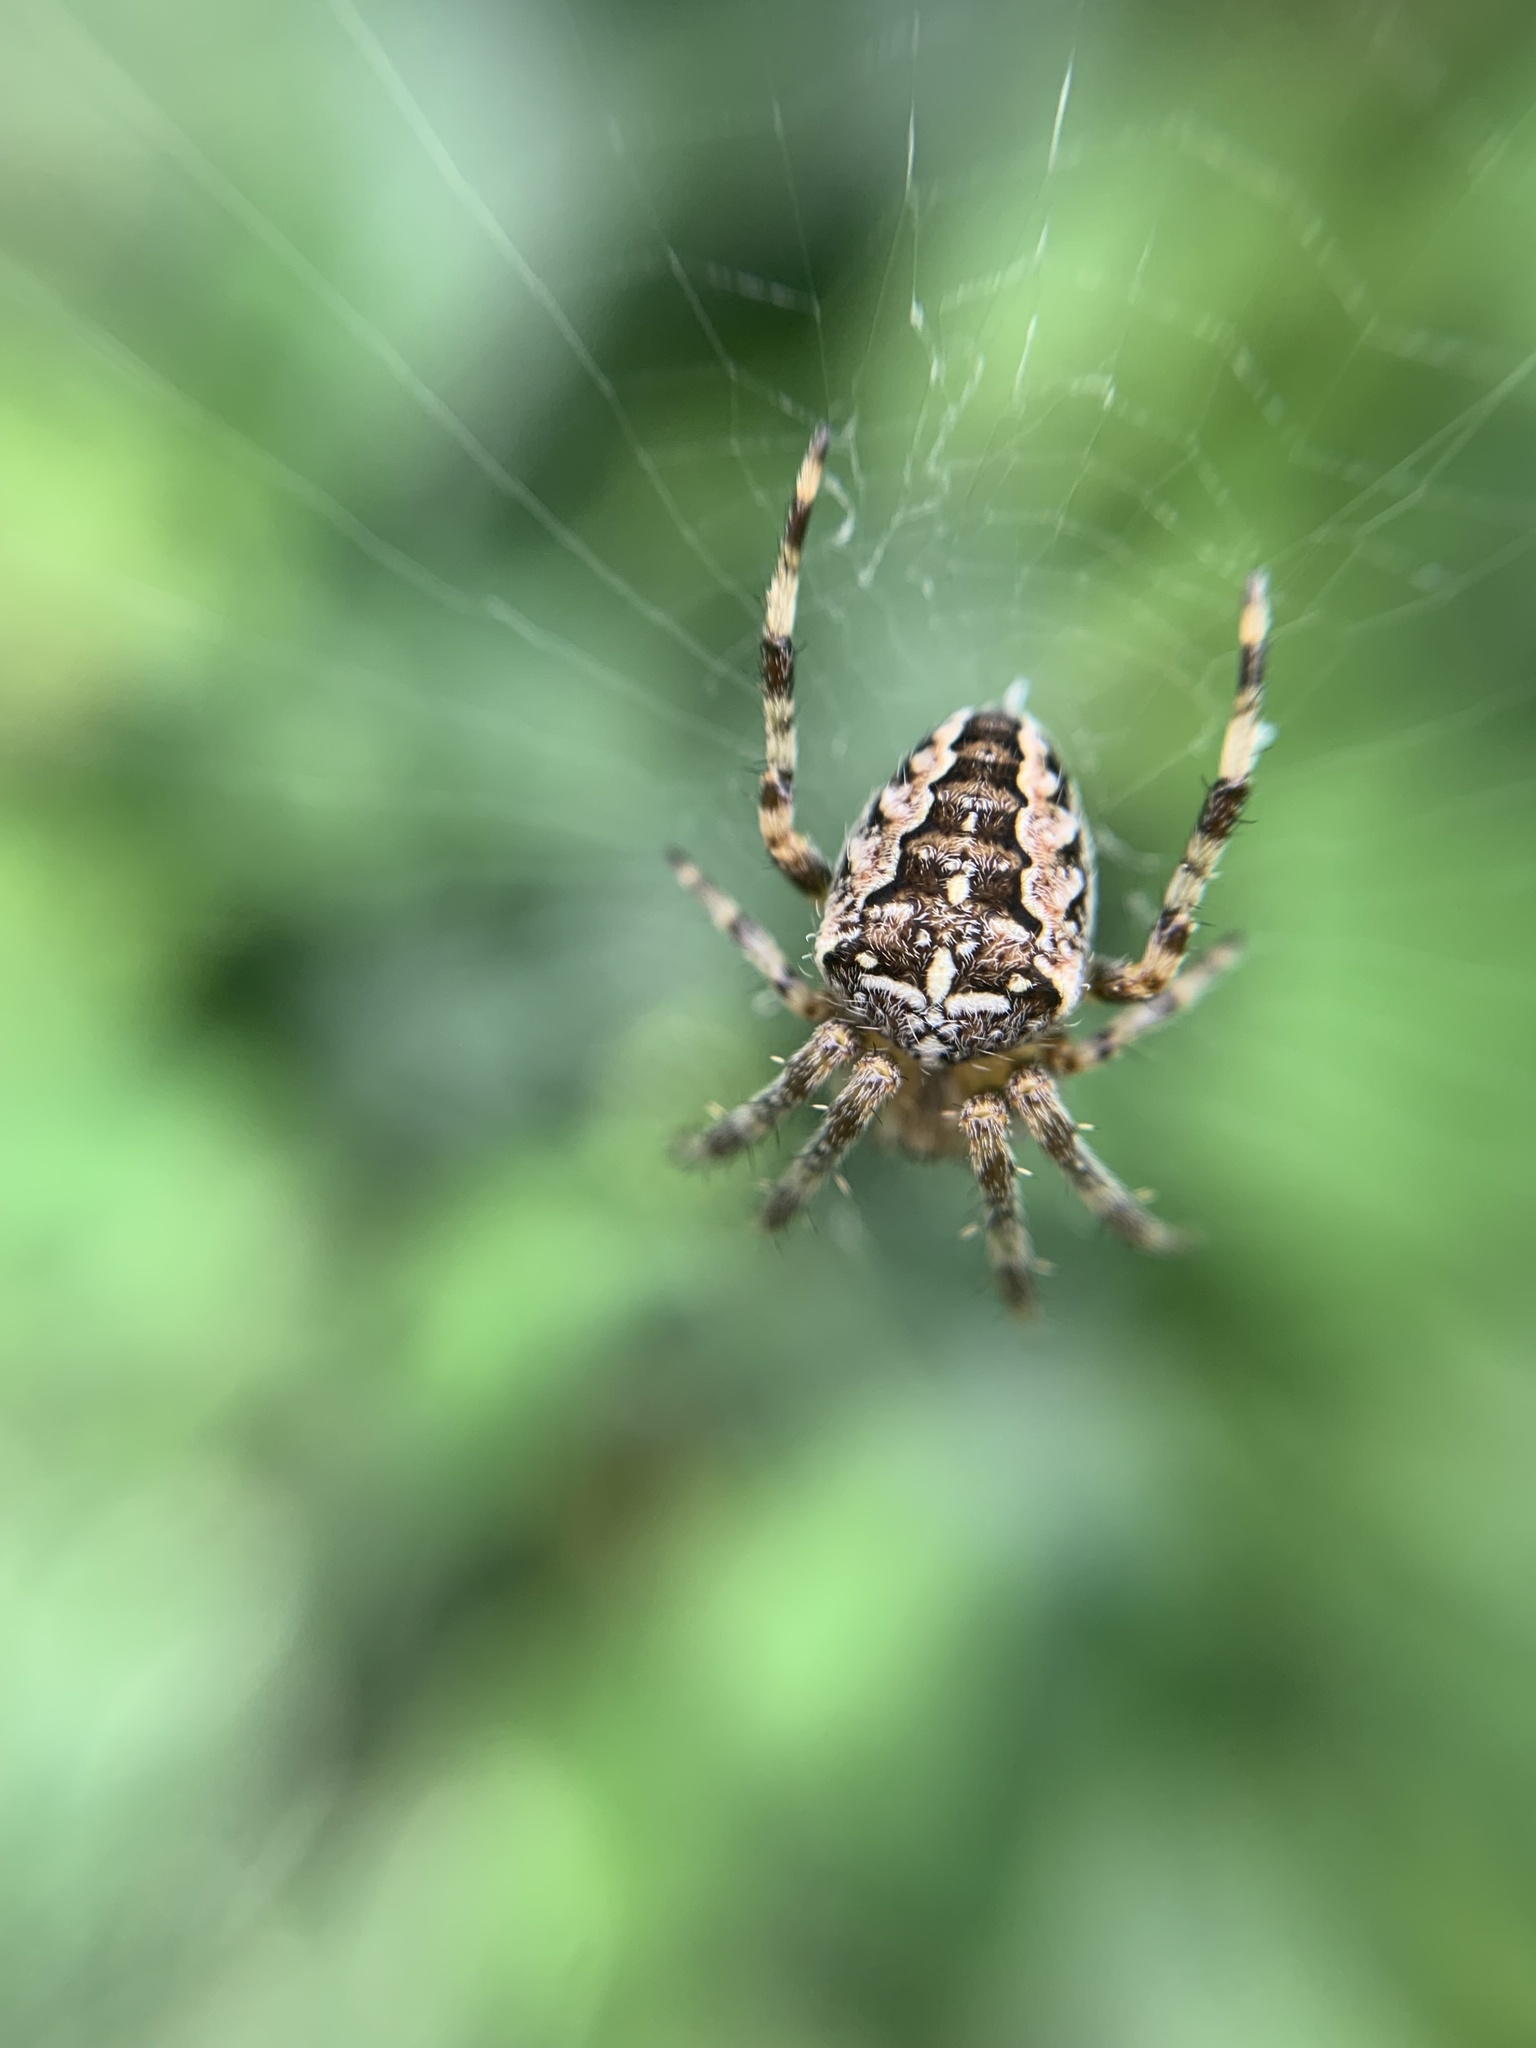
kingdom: Animalia
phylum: Arthropoda
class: Arachnida
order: Araneae
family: Araneidae
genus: Araneus
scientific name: Araneus diadematus
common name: Cross orbweaver
